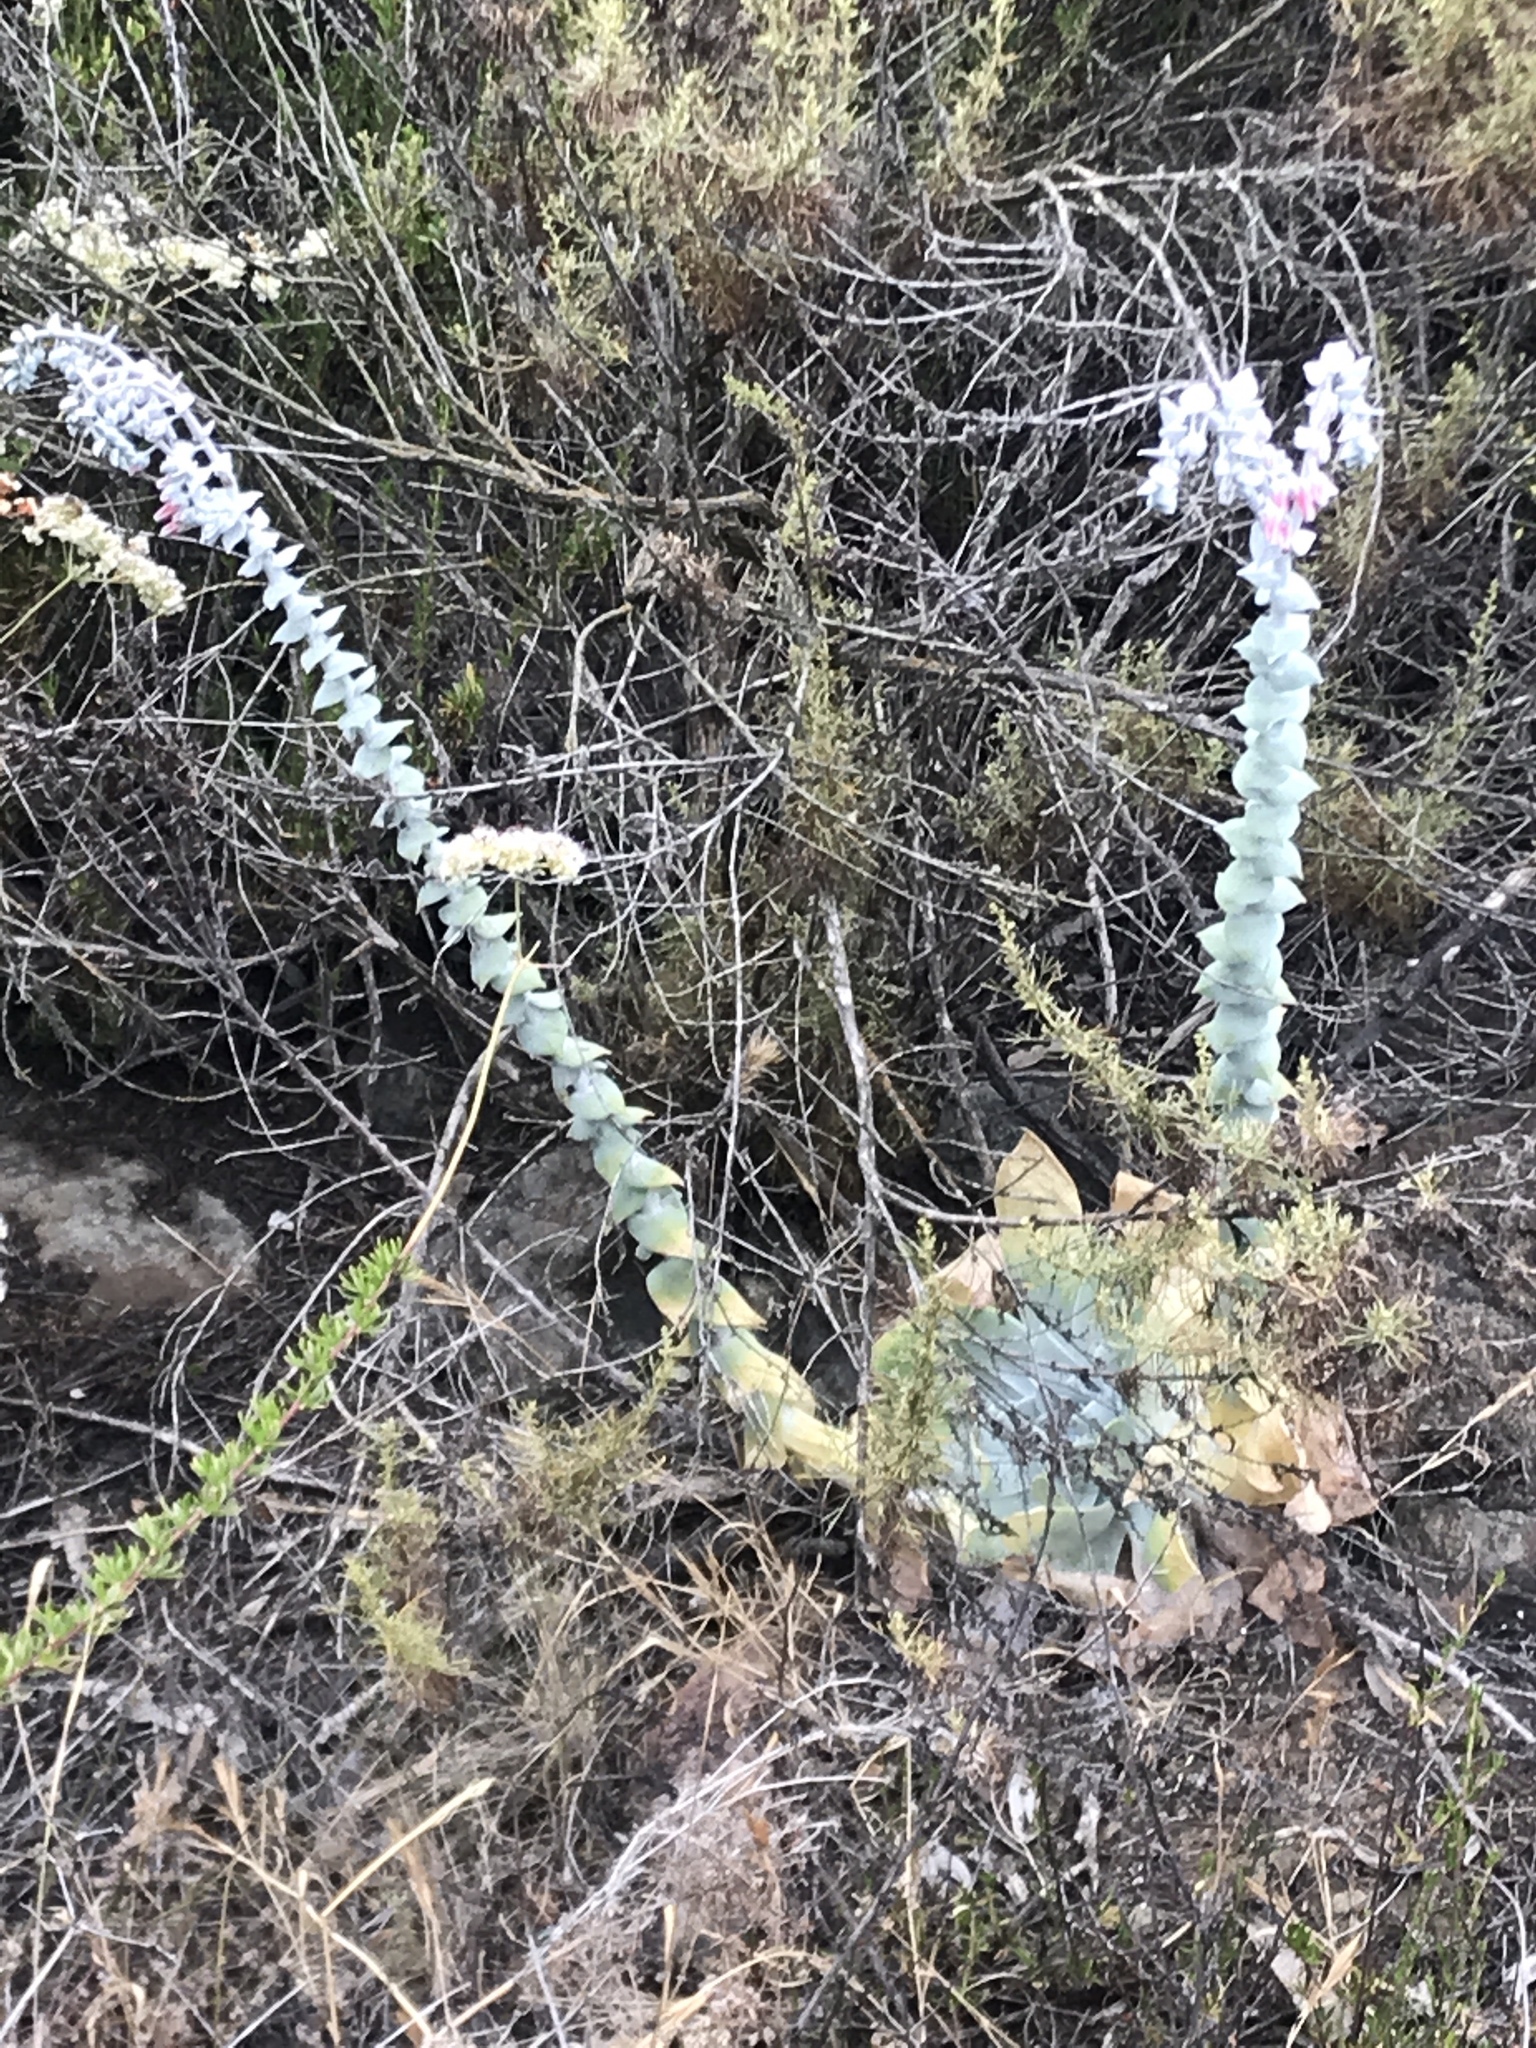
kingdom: Plantae
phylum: Tracheophyta
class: Magnoliopsida
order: Saxifragales
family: Crassulaceae
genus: Dudleya
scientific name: Dudleya pulverulenta
